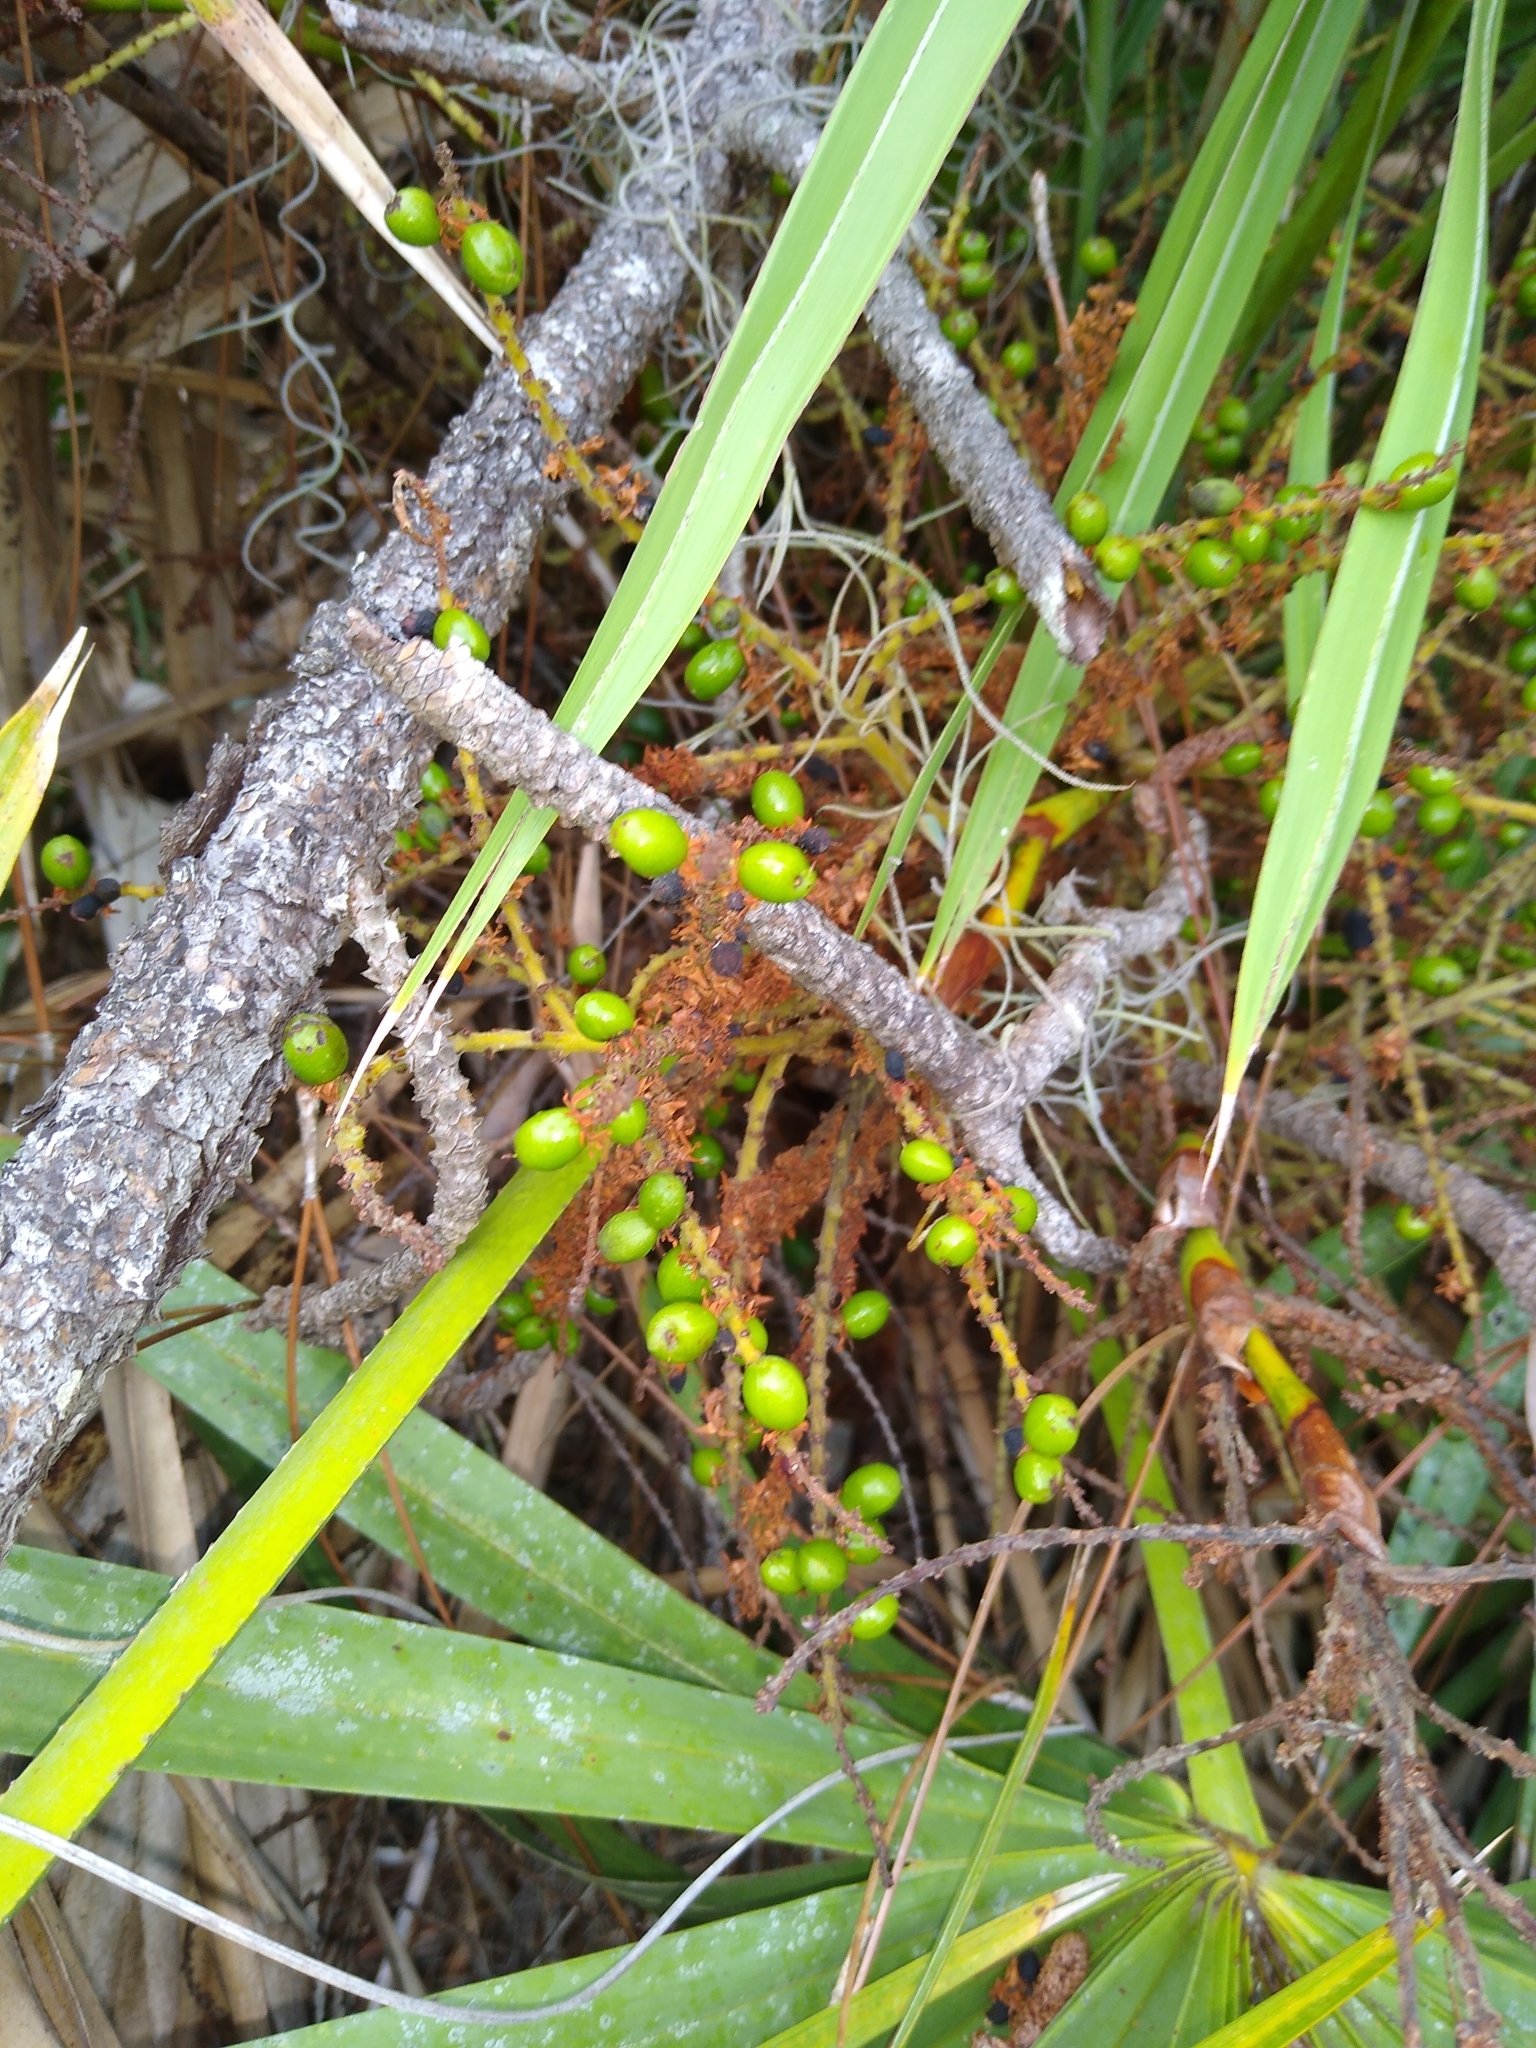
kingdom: Plantae
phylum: Tracheophyta
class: Liliopsida
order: Arecales
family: Arecaceae
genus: Serenoa
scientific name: Serenoa repens
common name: Saw-palmetto
